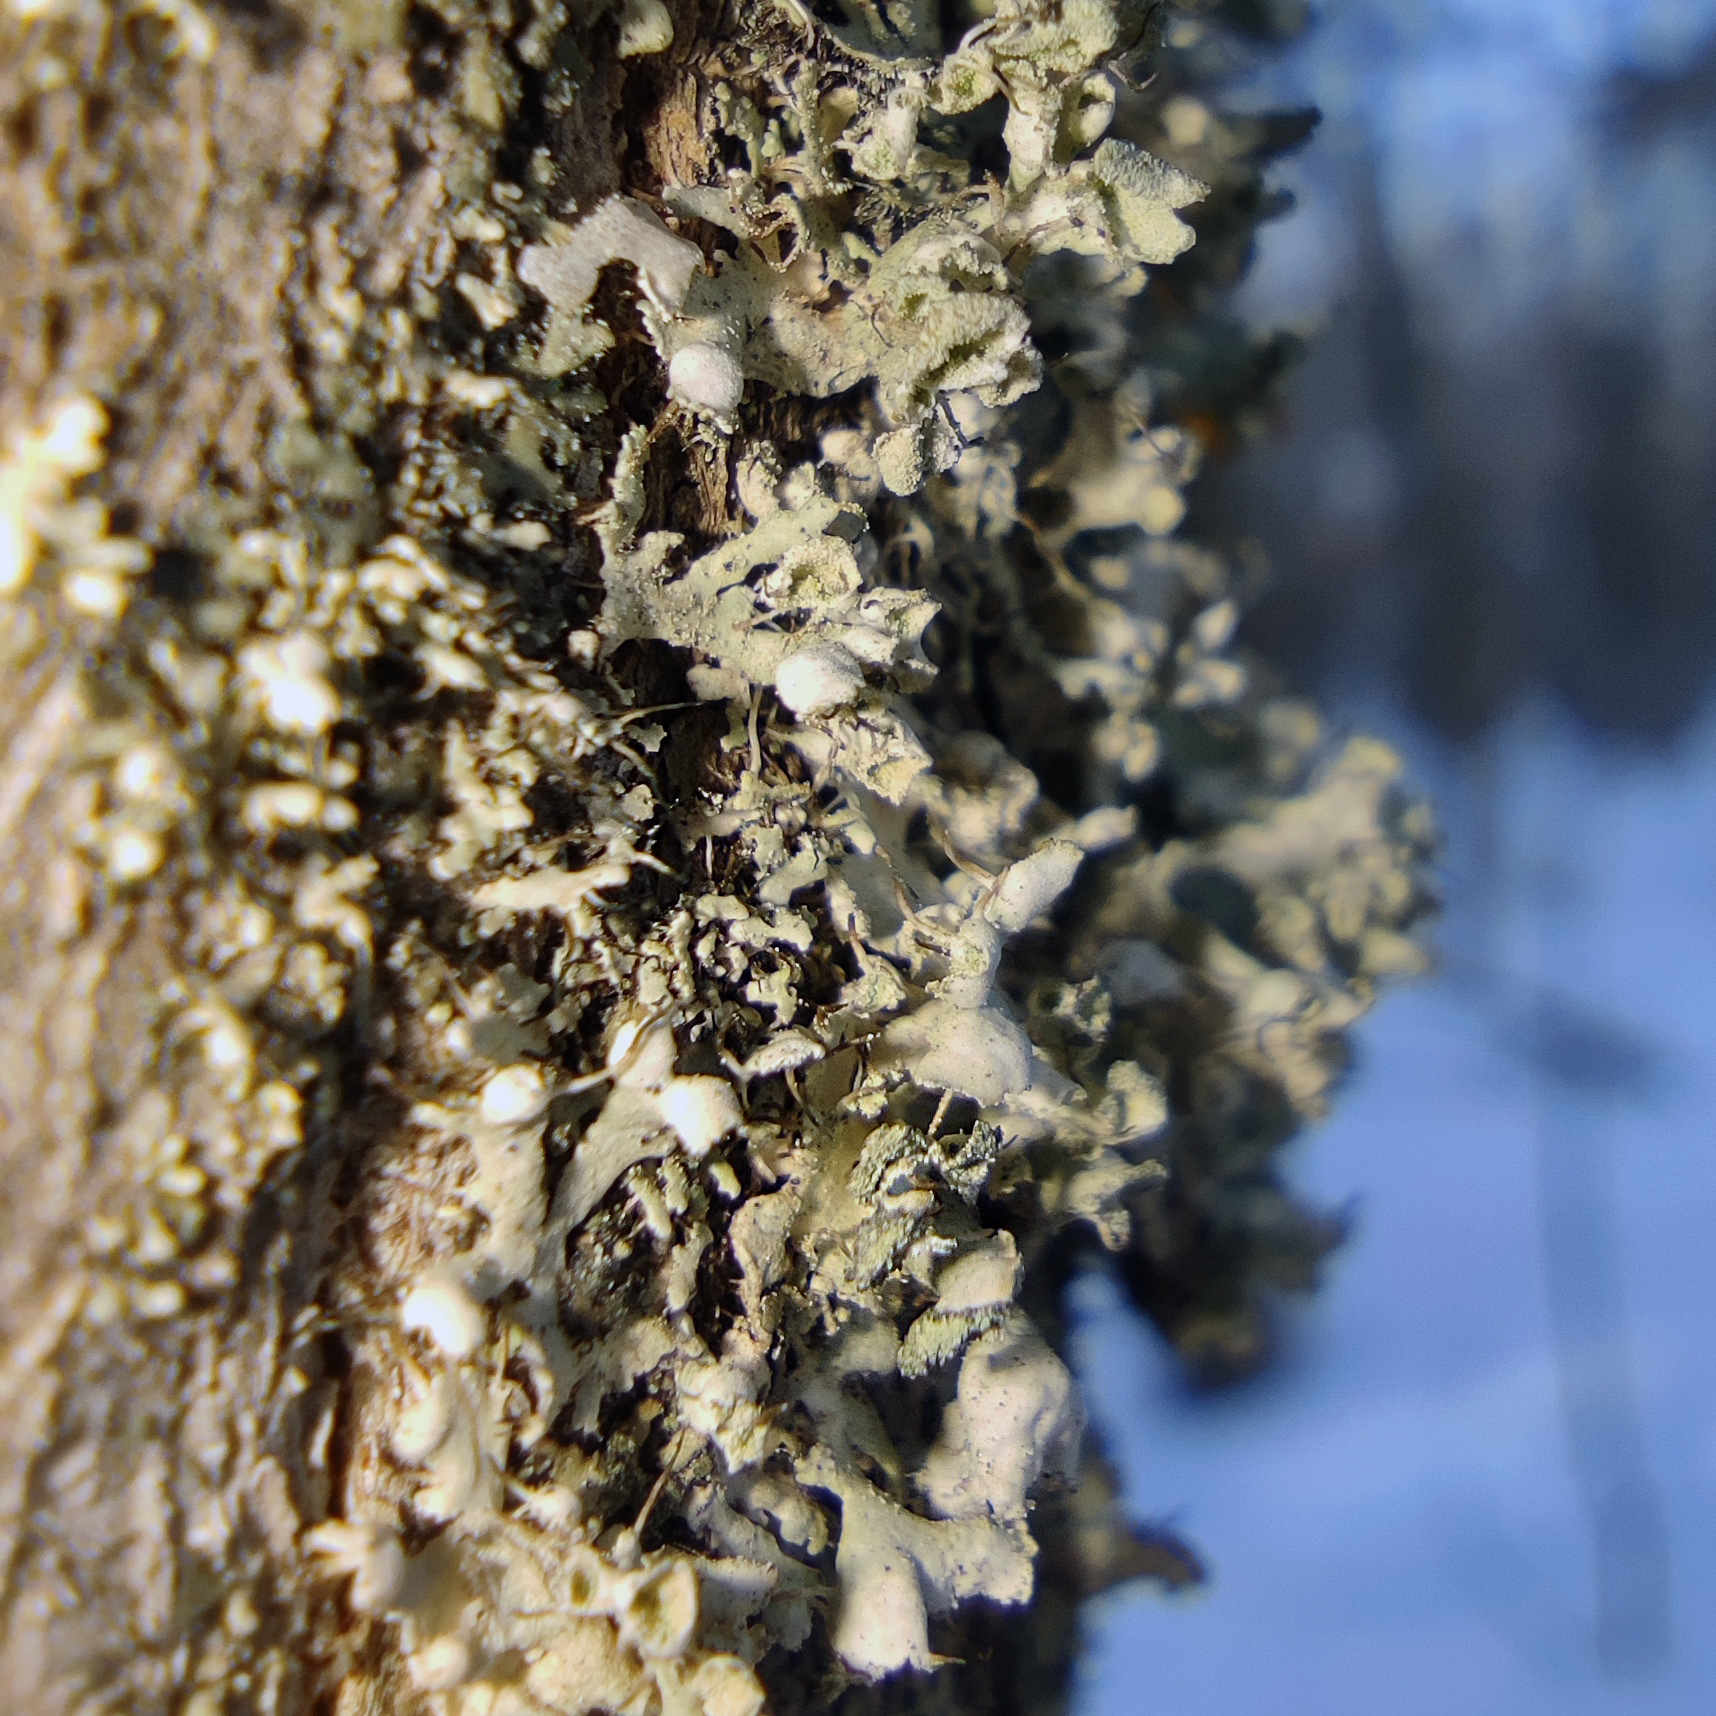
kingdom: Fungi
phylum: Ascomycota
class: Lecanoromycetes
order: Caliciales
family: Physciaceae
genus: Physcia
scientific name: Physcia adscendens
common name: Hooded rosette lichen
